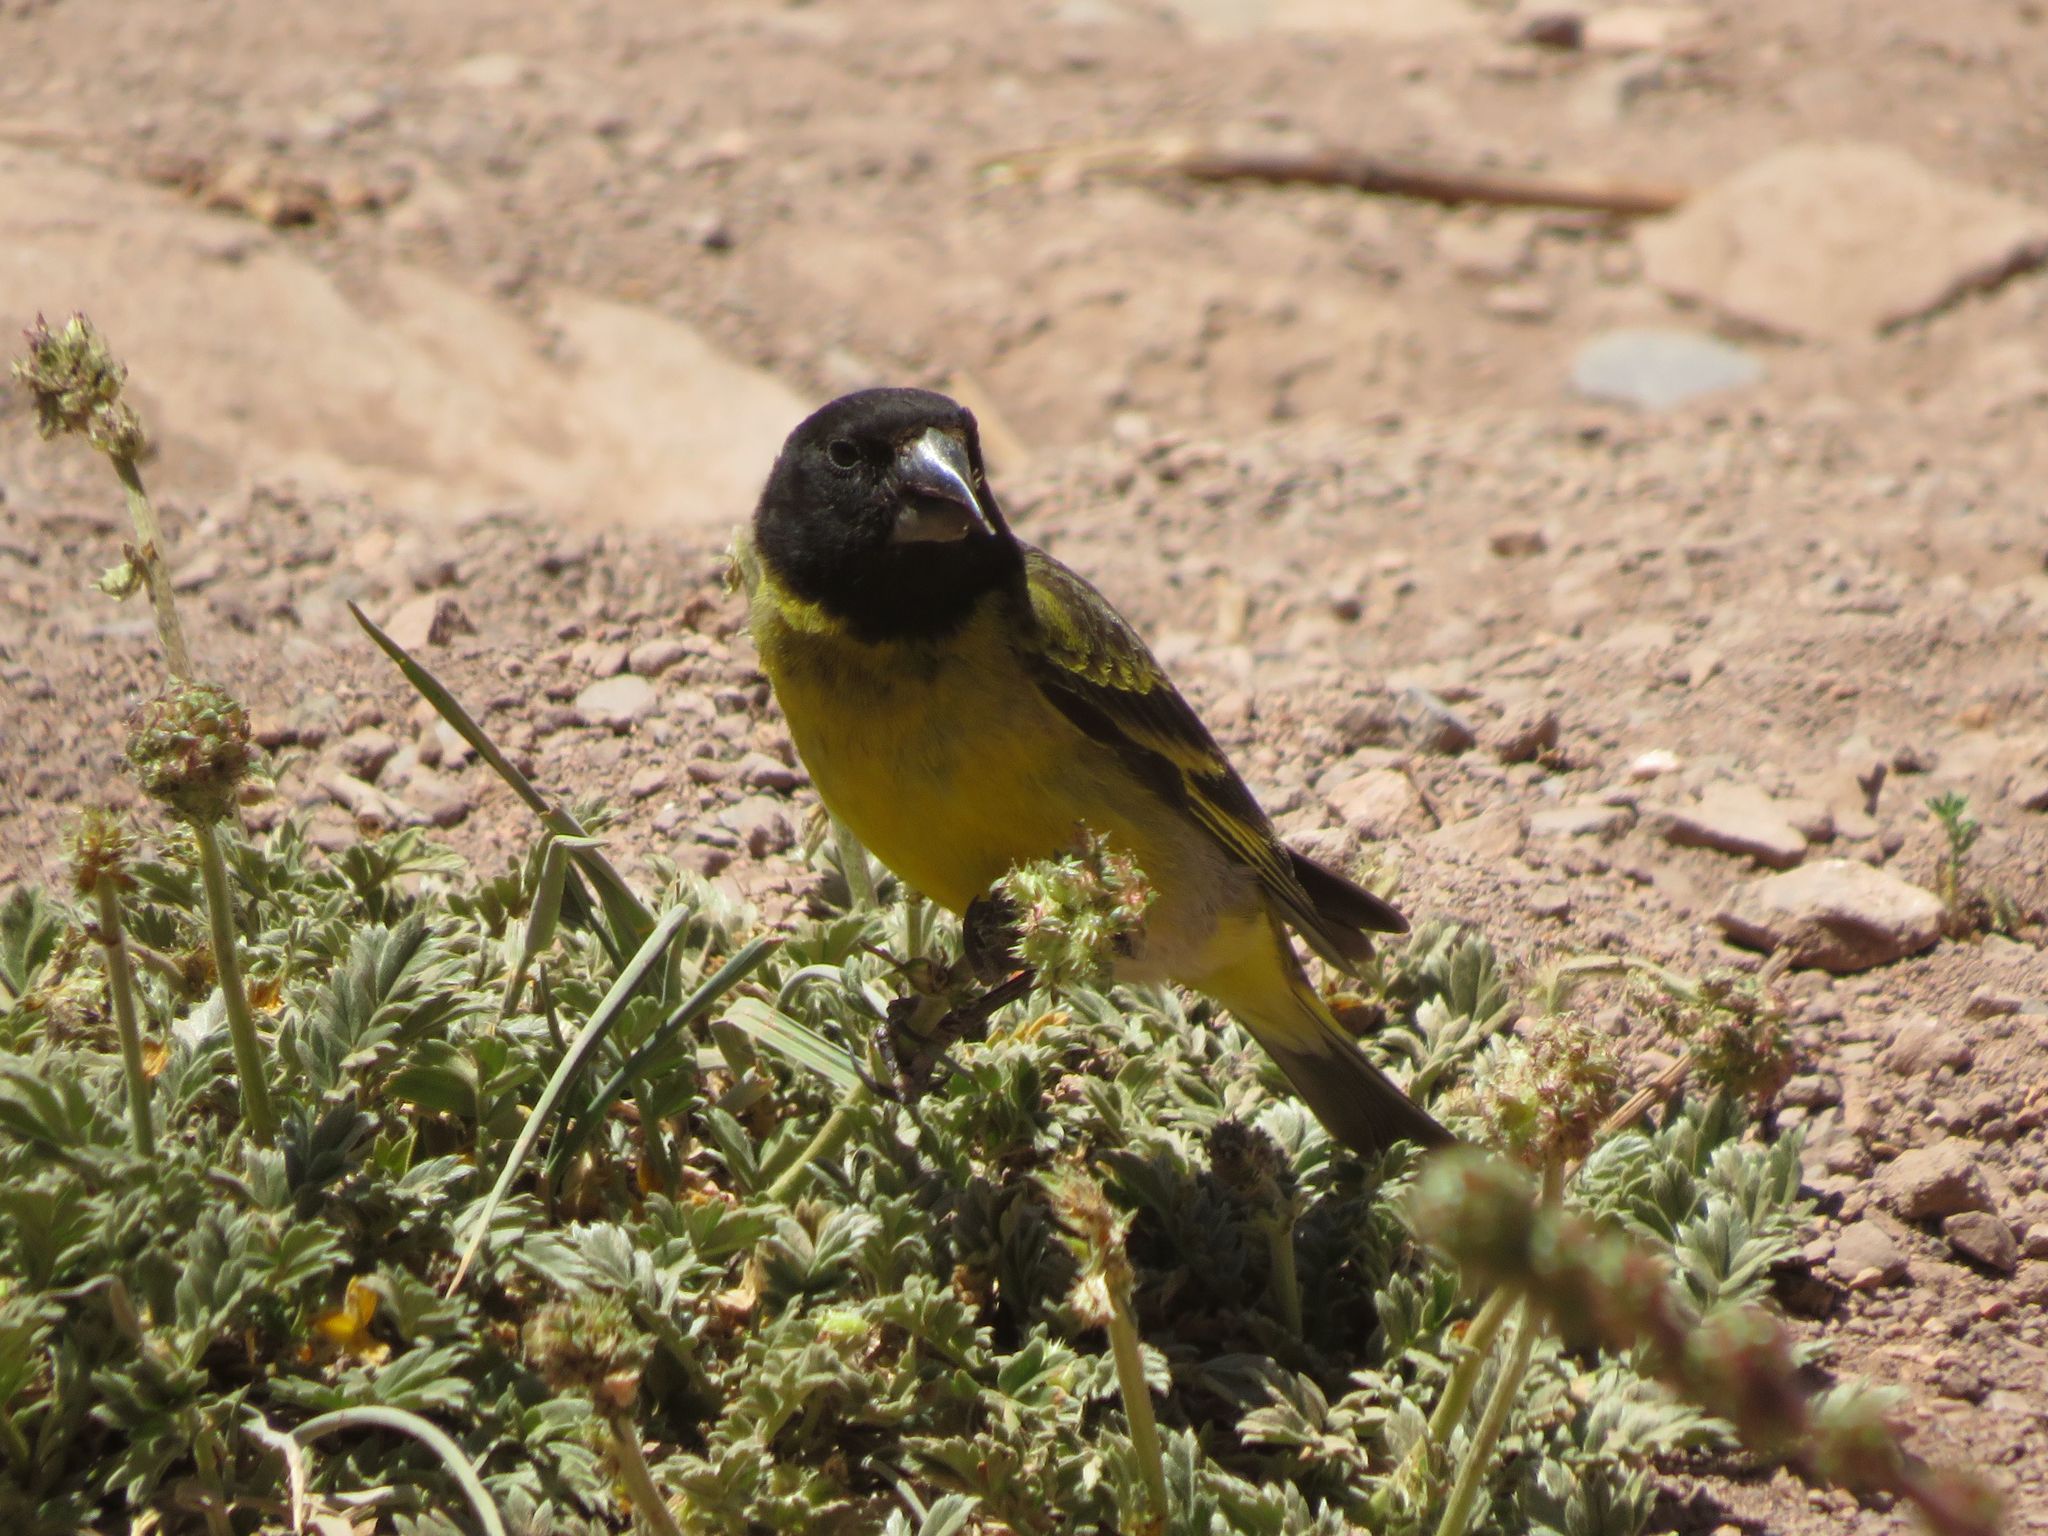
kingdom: Animalia
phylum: Chordata
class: Aves
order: Passeriformes
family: Fringillidae
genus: Spinus
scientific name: Spinus crassirostris
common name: Thick-billed siskin
